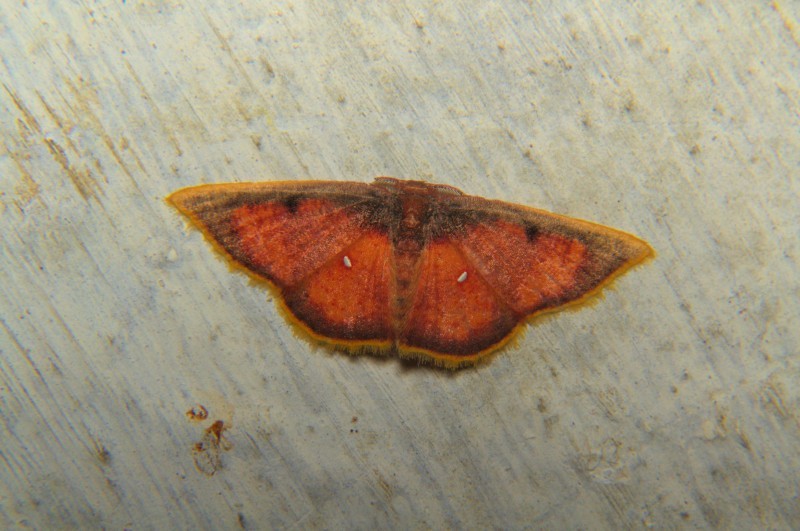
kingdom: Animalia
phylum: Arthropoda
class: Insecta
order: Lepidoptera
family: Geometridae
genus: Chrysocraspeda
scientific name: Chrysocraspeda sanguinea
